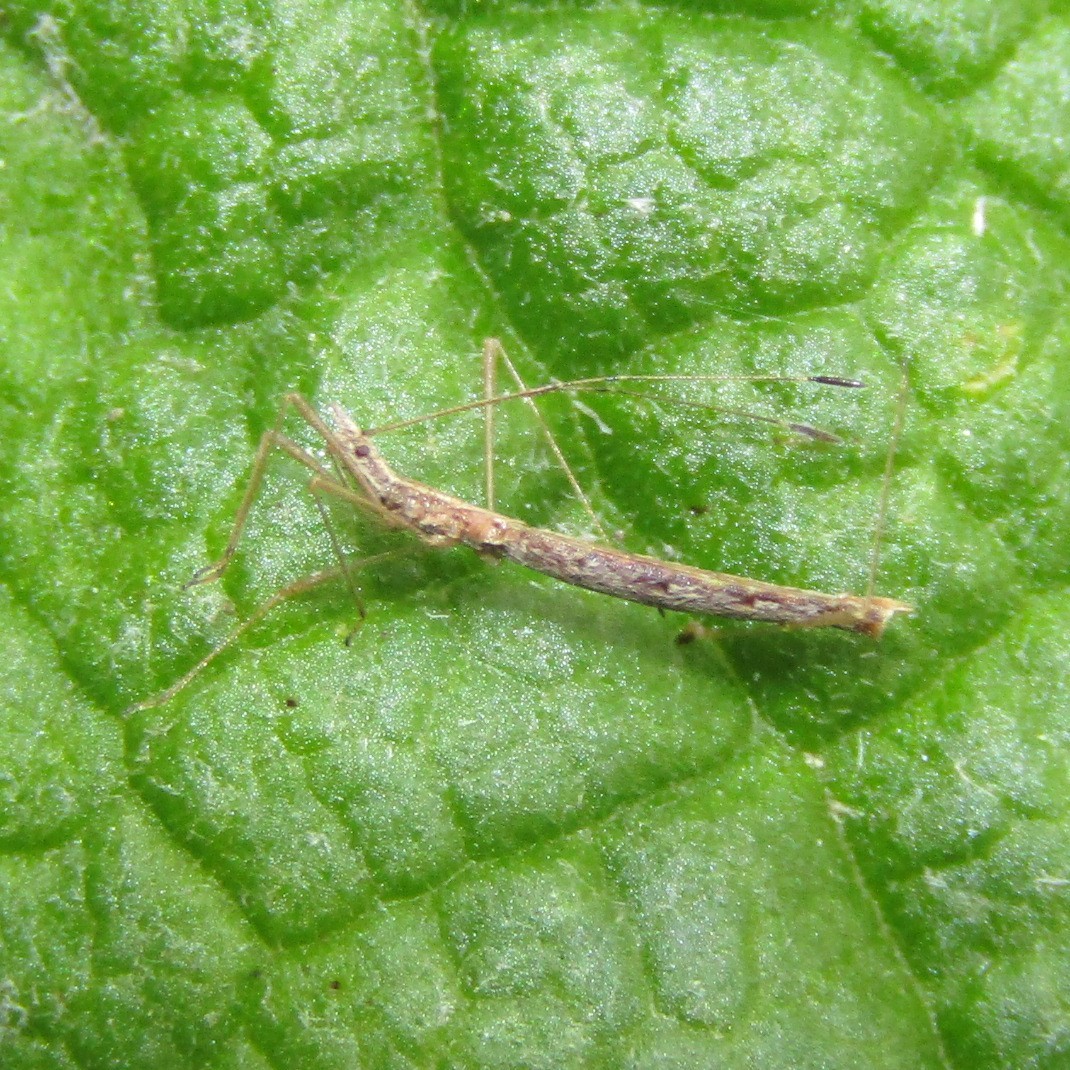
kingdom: Animalia
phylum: Arthropoda
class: Insecta
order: Hemiptera
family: Berytidae
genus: Bezu
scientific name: Bezu wakefieldi
